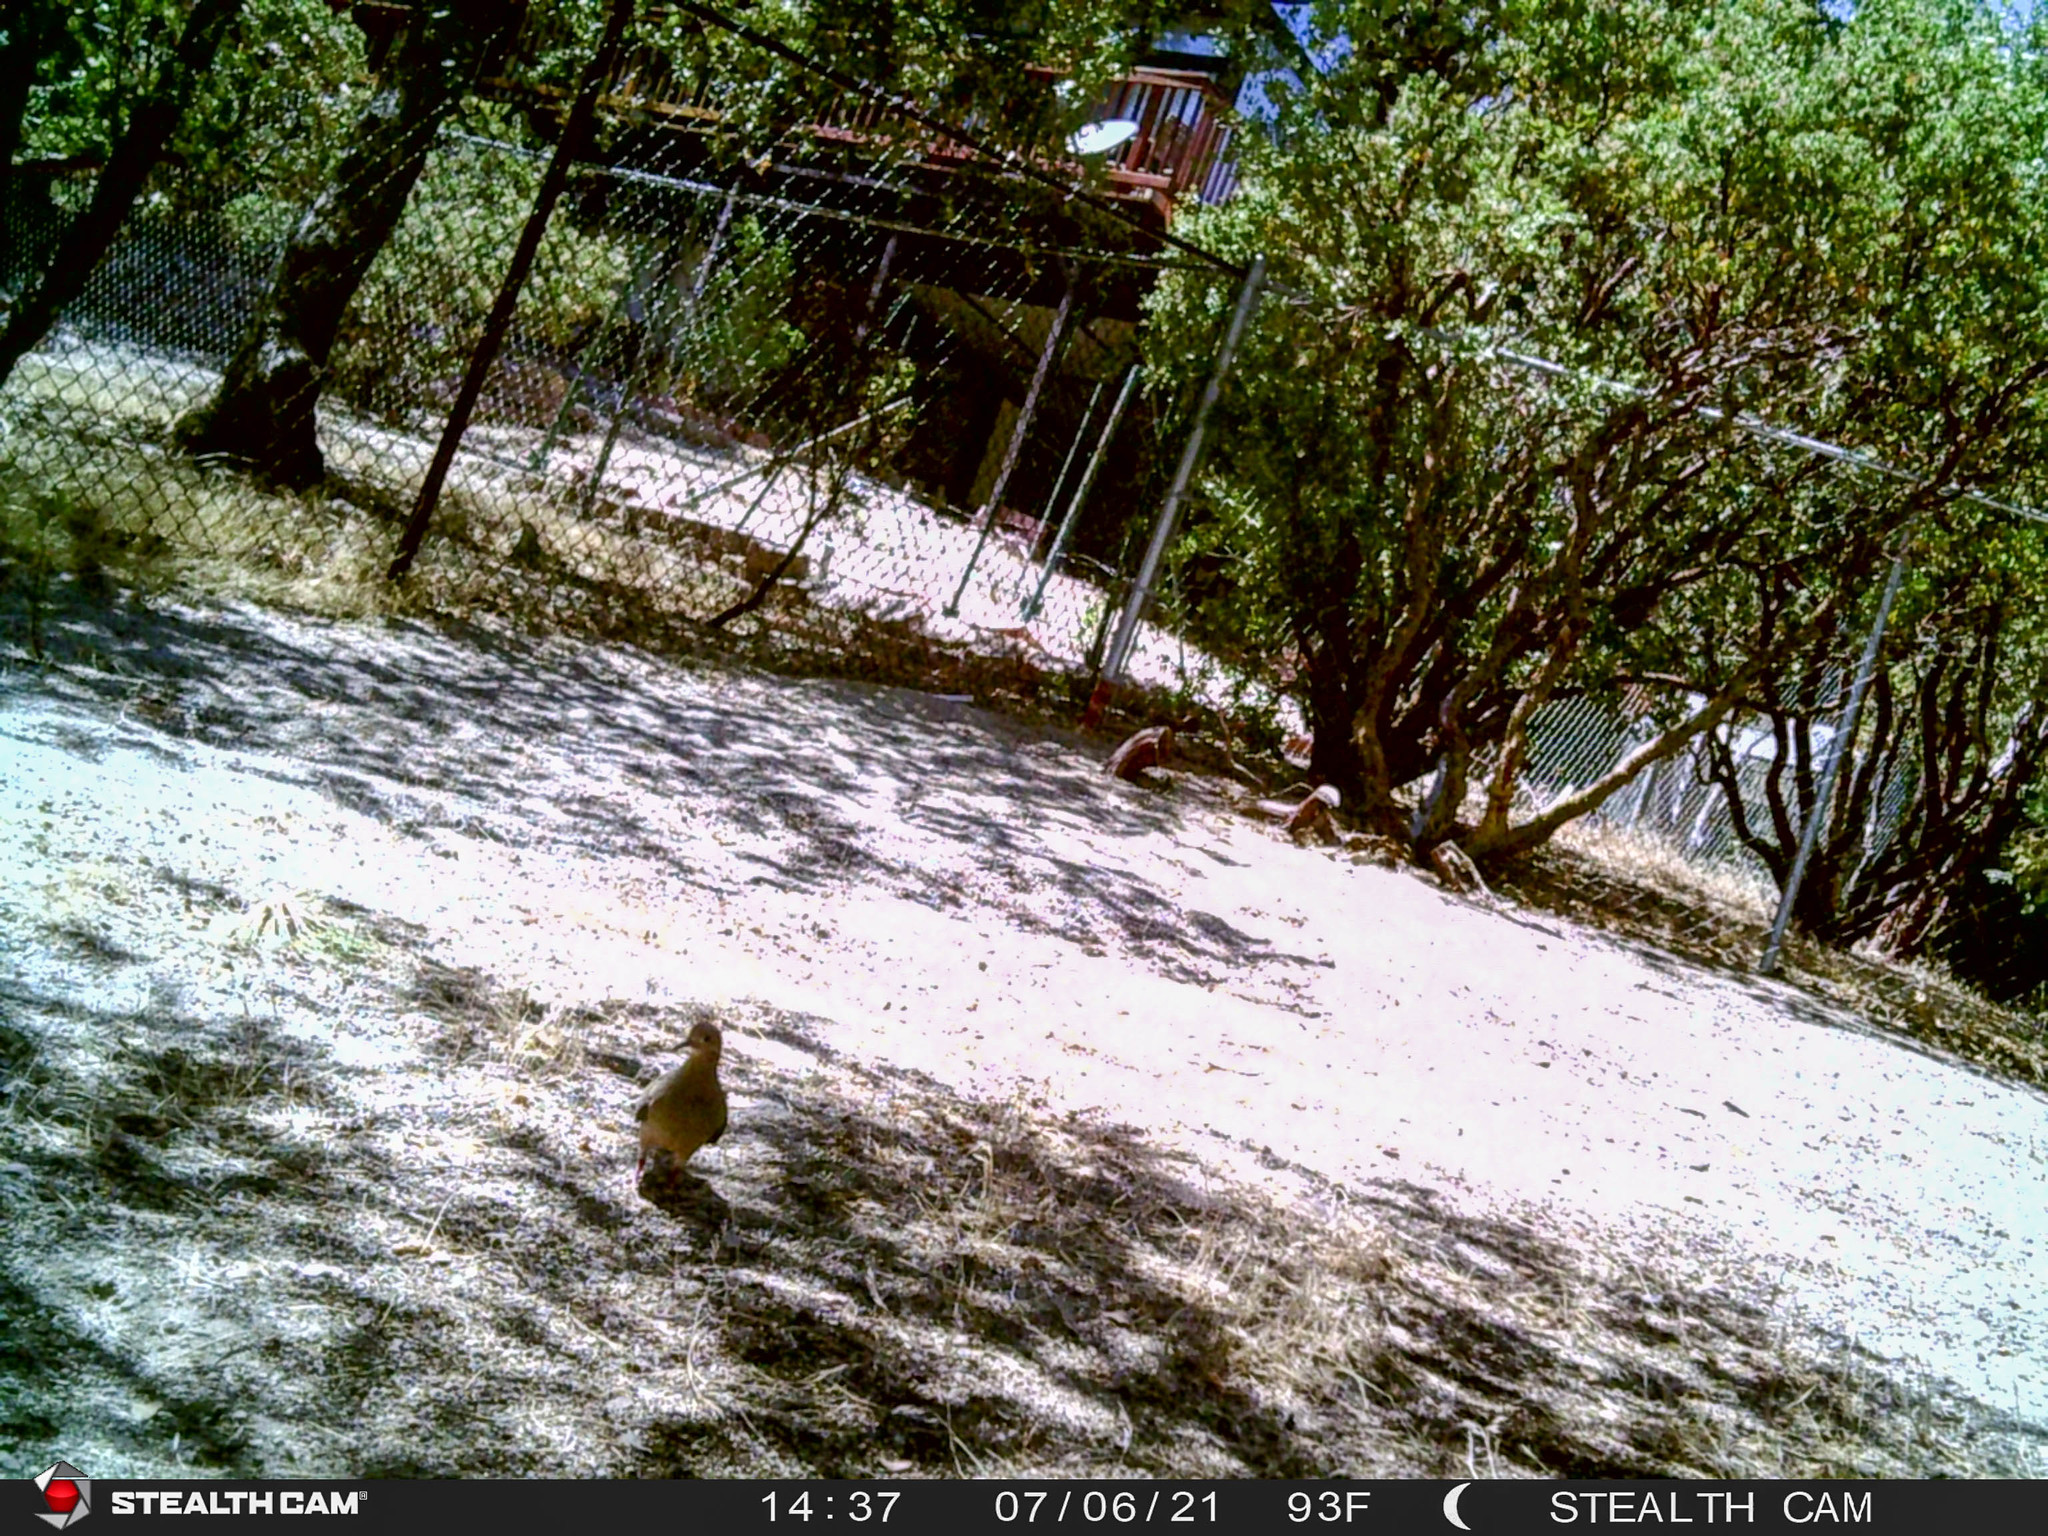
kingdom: Animalia
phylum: Chordata
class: Aves
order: Columbiformes
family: Columbidae
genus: Zenaida
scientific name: Zenaida macroura
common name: Mourning dove
